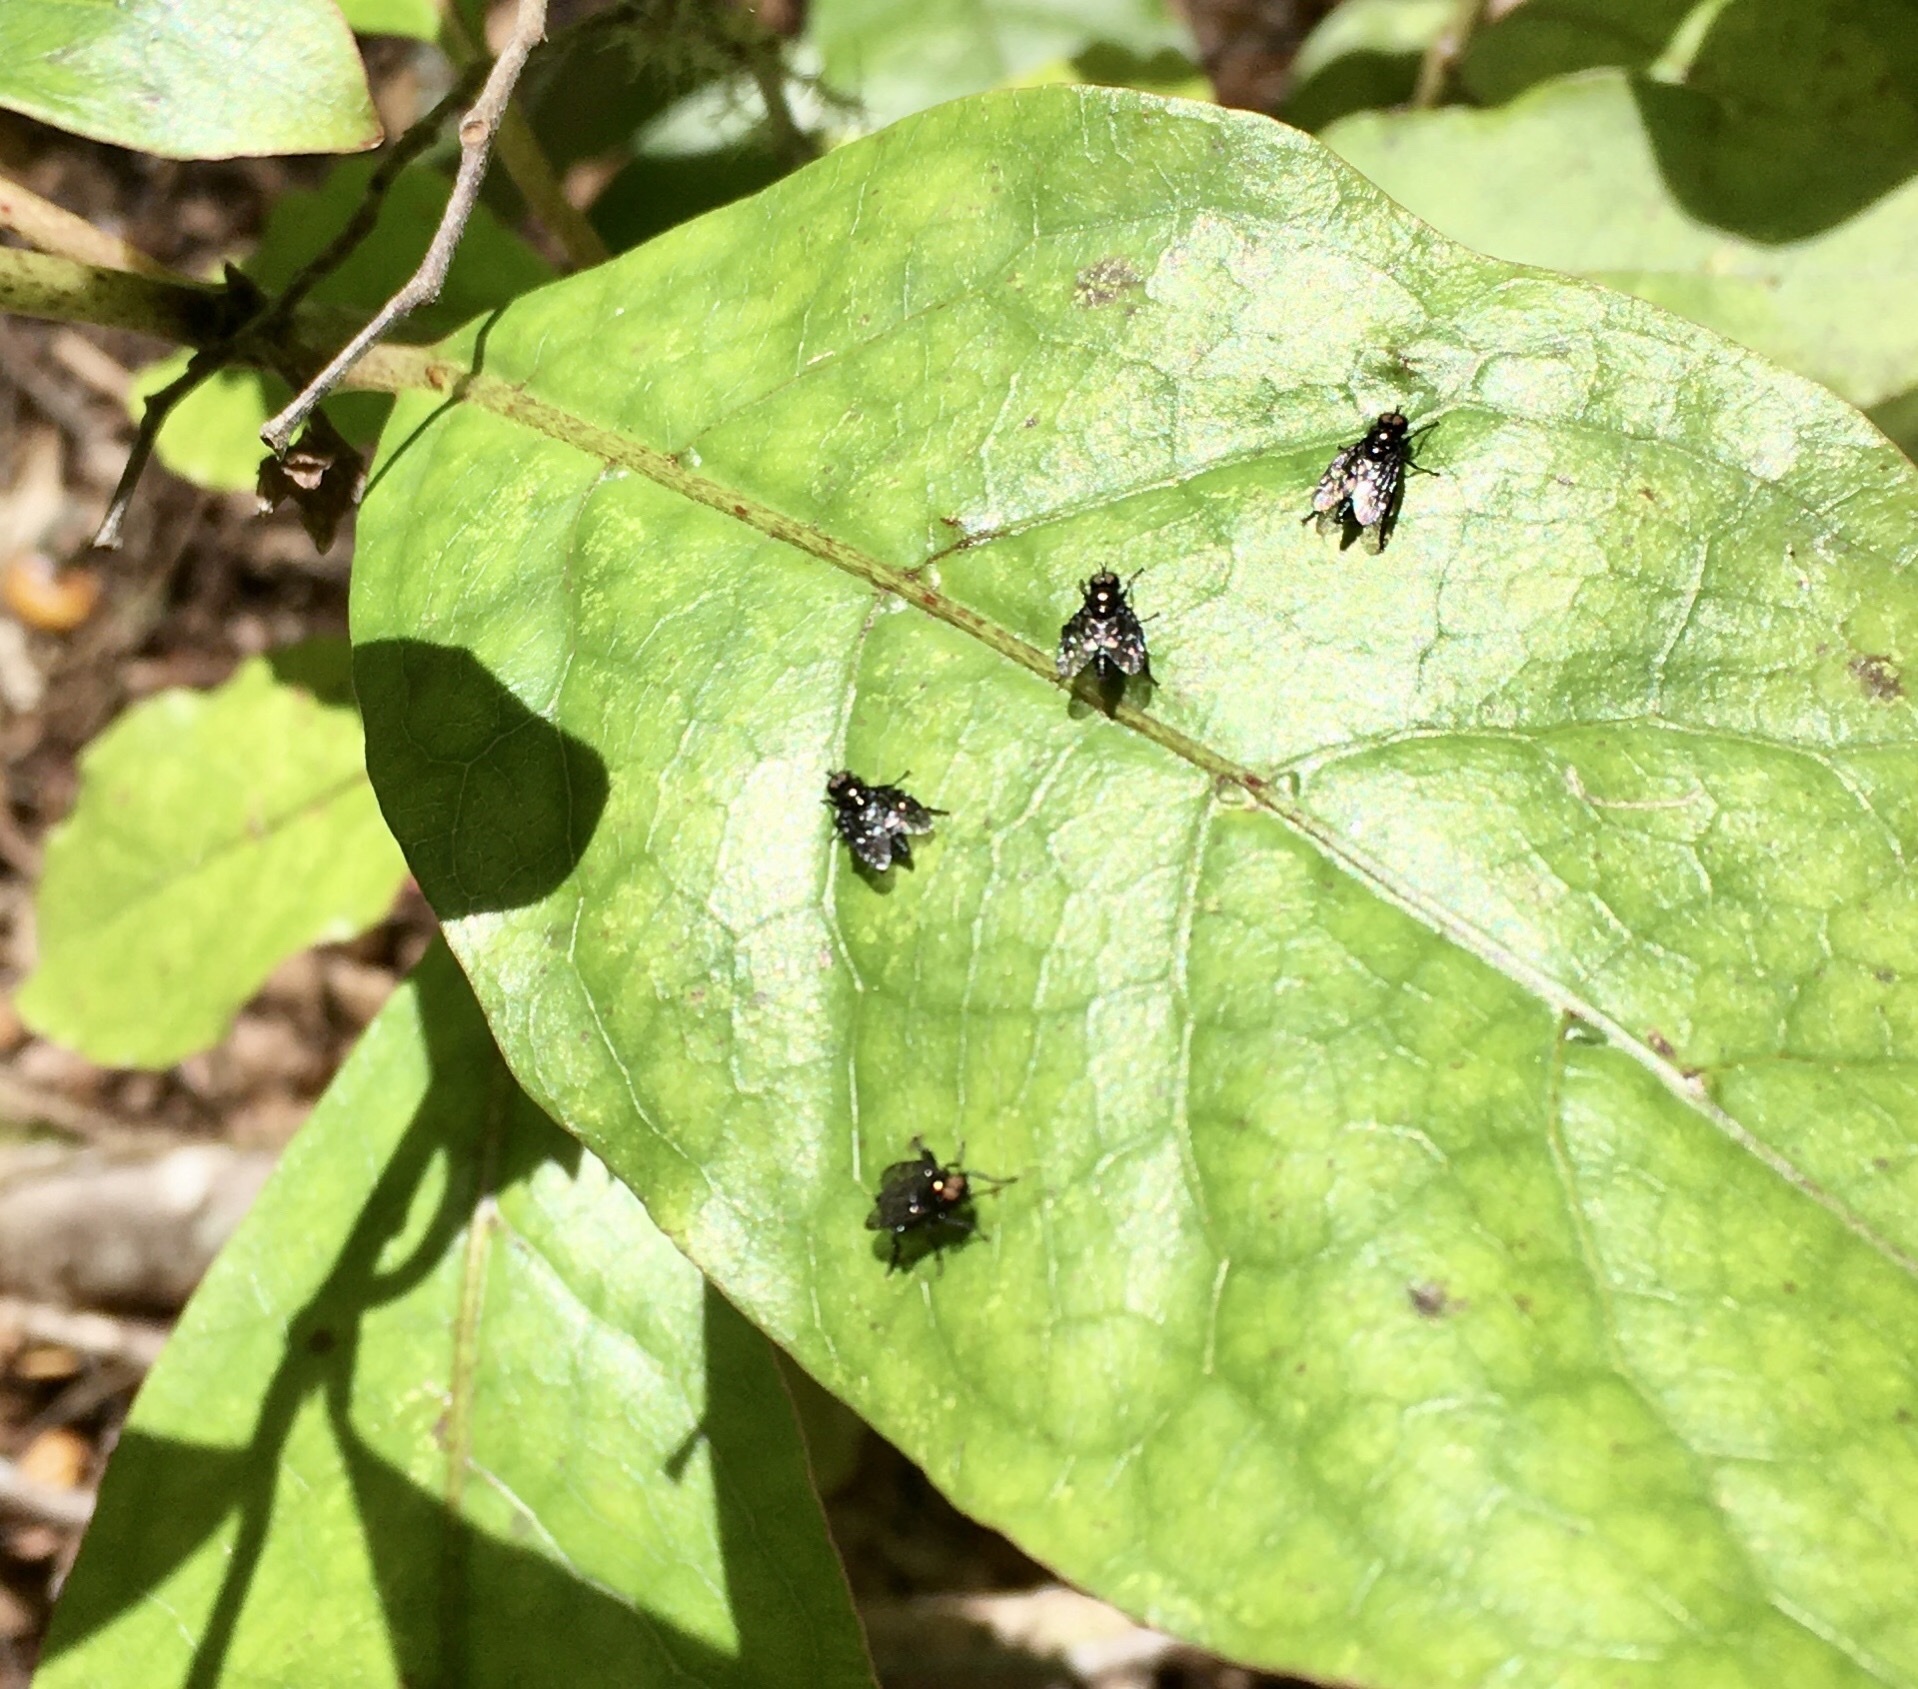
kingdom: Animalia
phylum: Arthropoda
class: Insecta
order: Diptera
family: Stratiomyidae
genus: Berisina
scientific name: Berisina maculipennis
